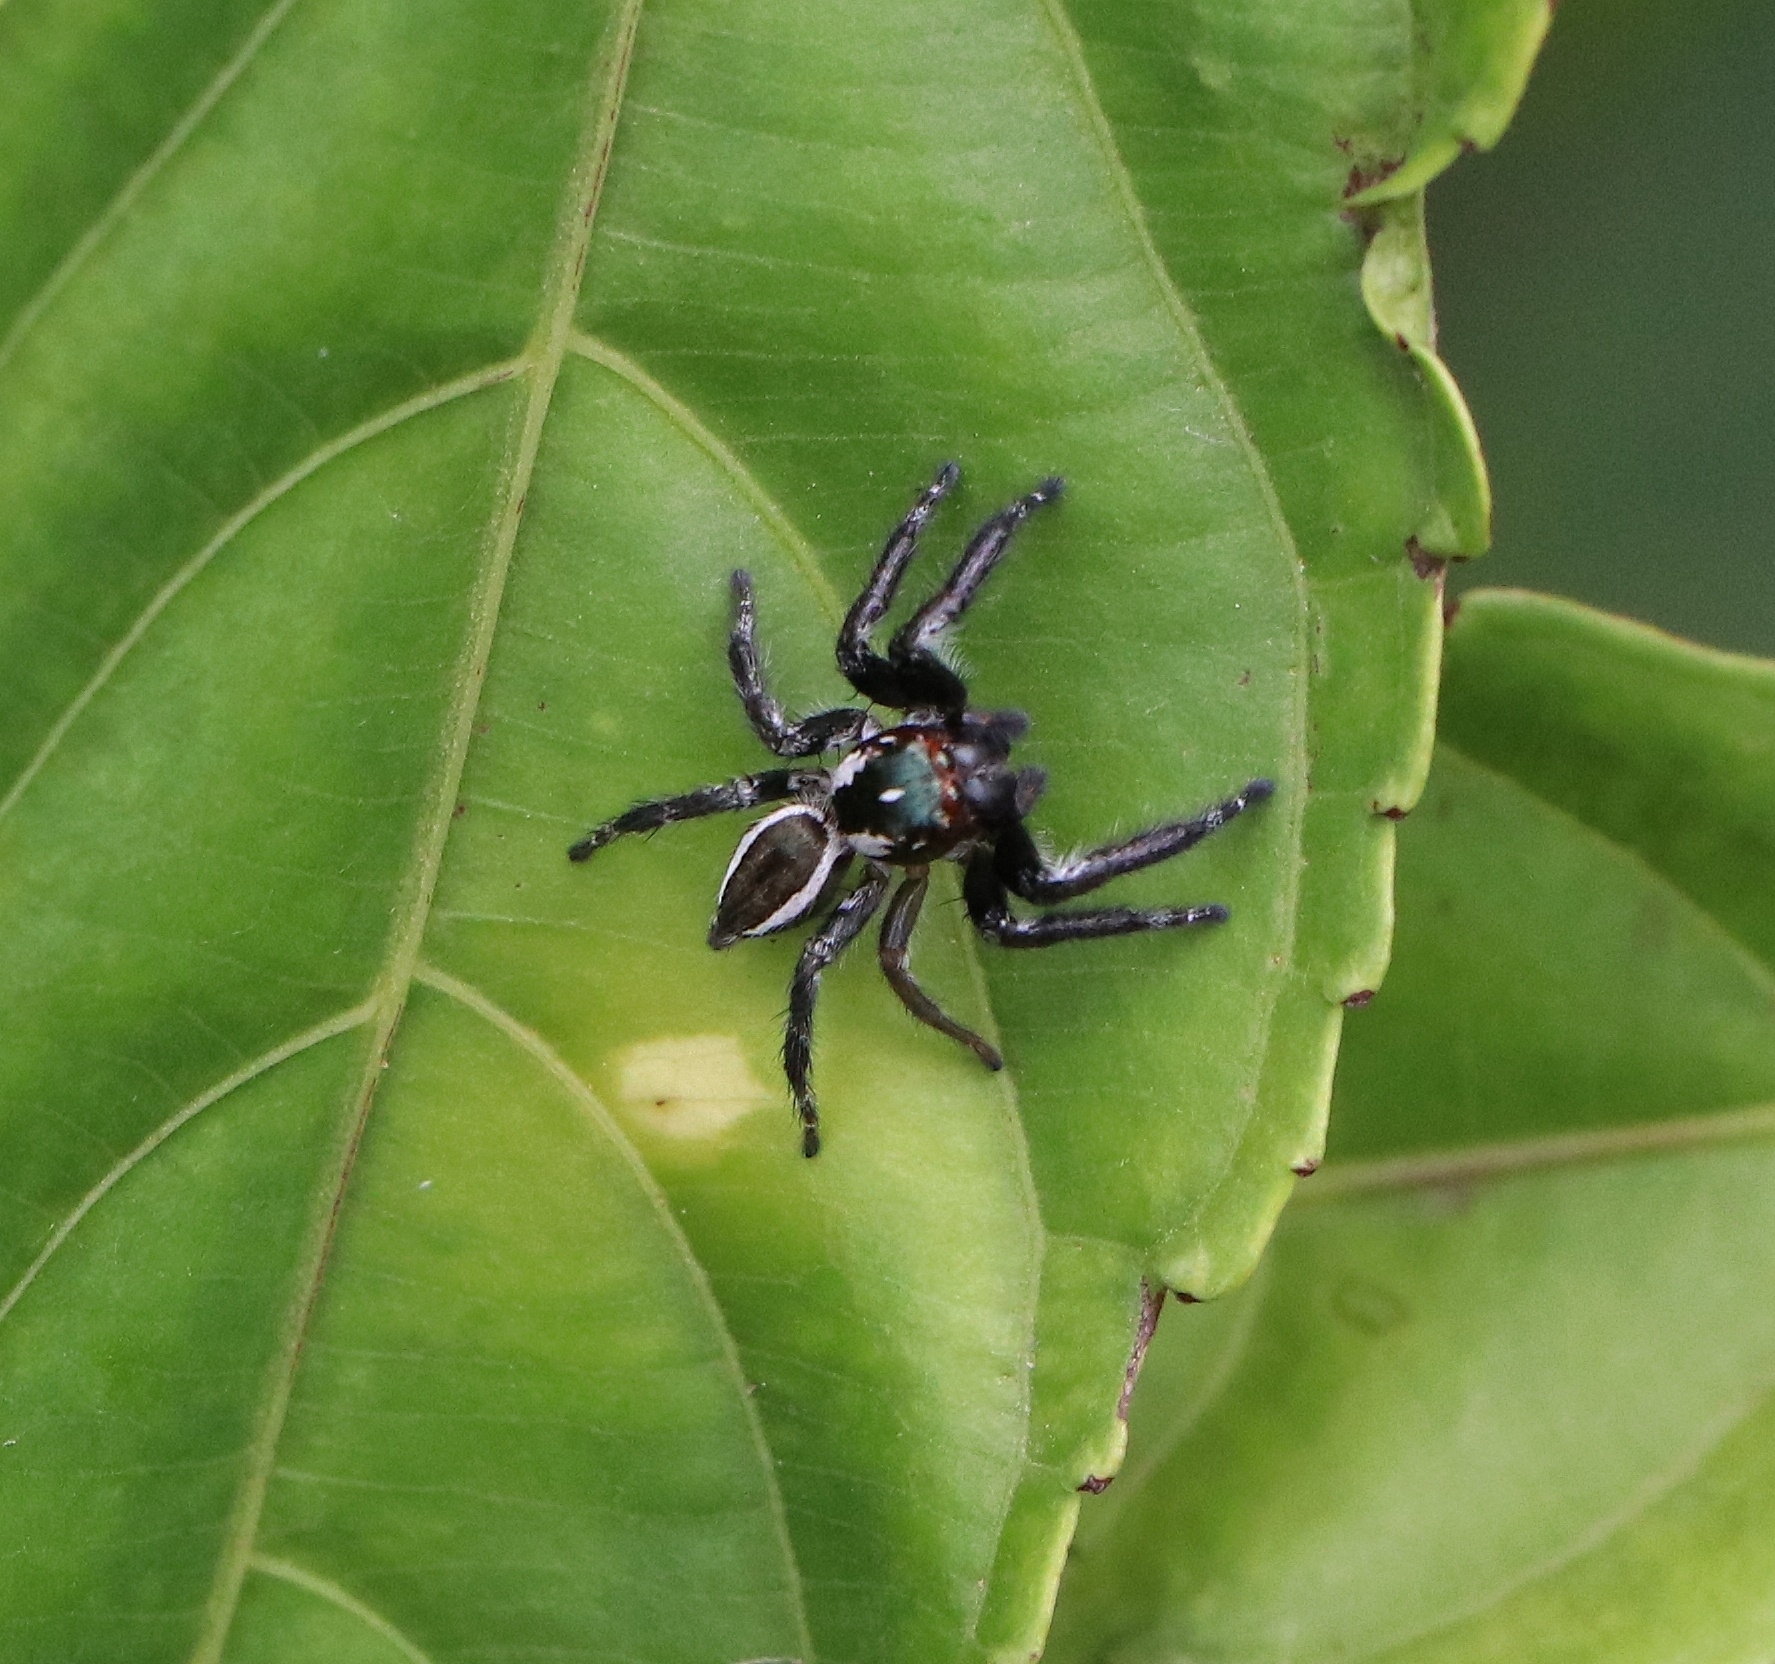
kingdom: Animalia
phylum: Arthropoda
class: Arachnida
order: Araneae
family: Salticidae
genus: Carrhotus
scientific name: Carrhotus viduus
